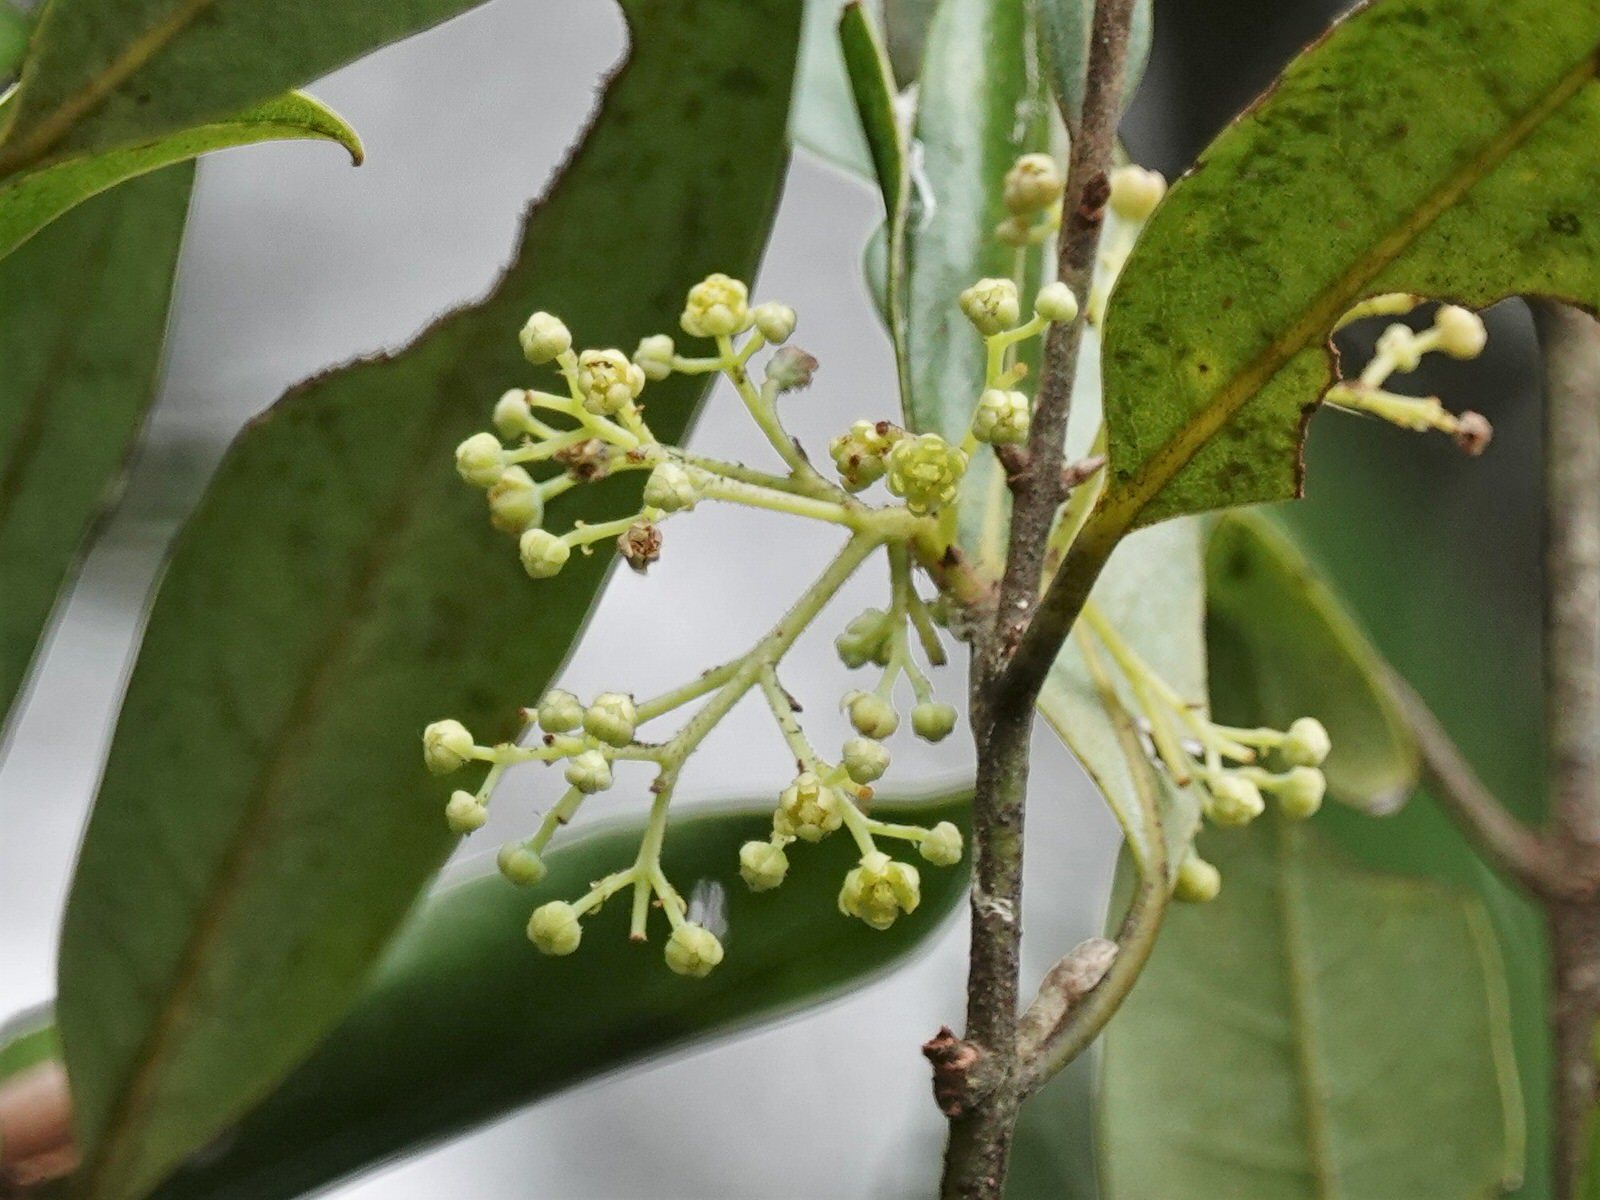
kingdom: Plantae
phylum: Tracheophyta
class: Magnoliopsida
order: Laurales
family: Lauraceae
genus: Beilschmiedia
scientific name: Beilschmiedia tawa
